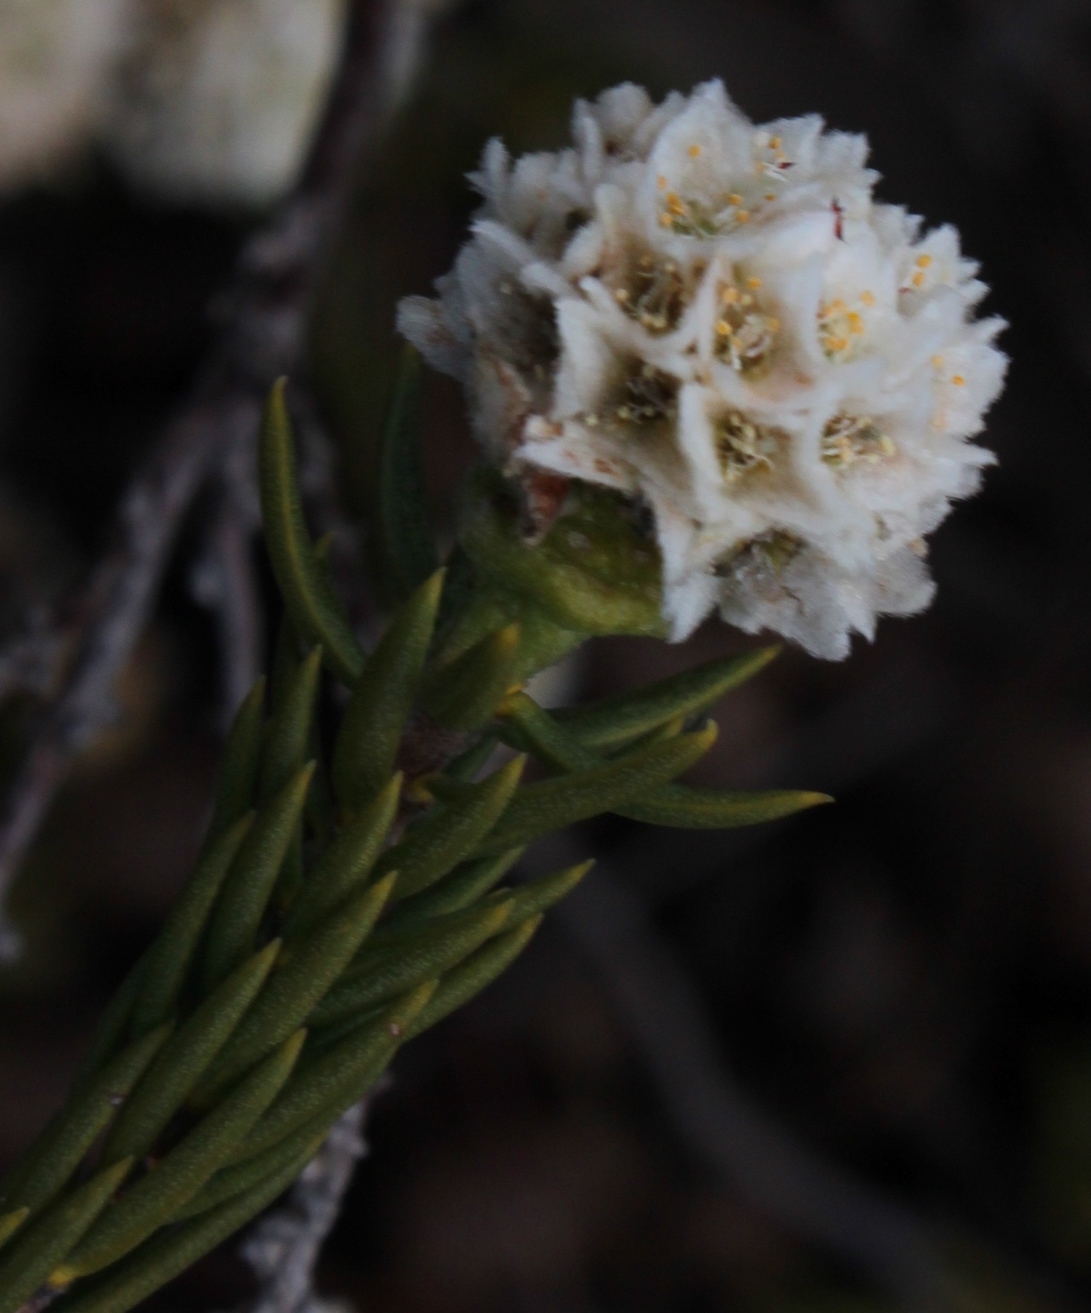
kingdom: Plantae
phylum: Tracheophyta
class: Magnoliopsida
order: Malvales
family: Thymelaeaceae
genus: Lachnaea
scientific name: Lachnaea densiflora
